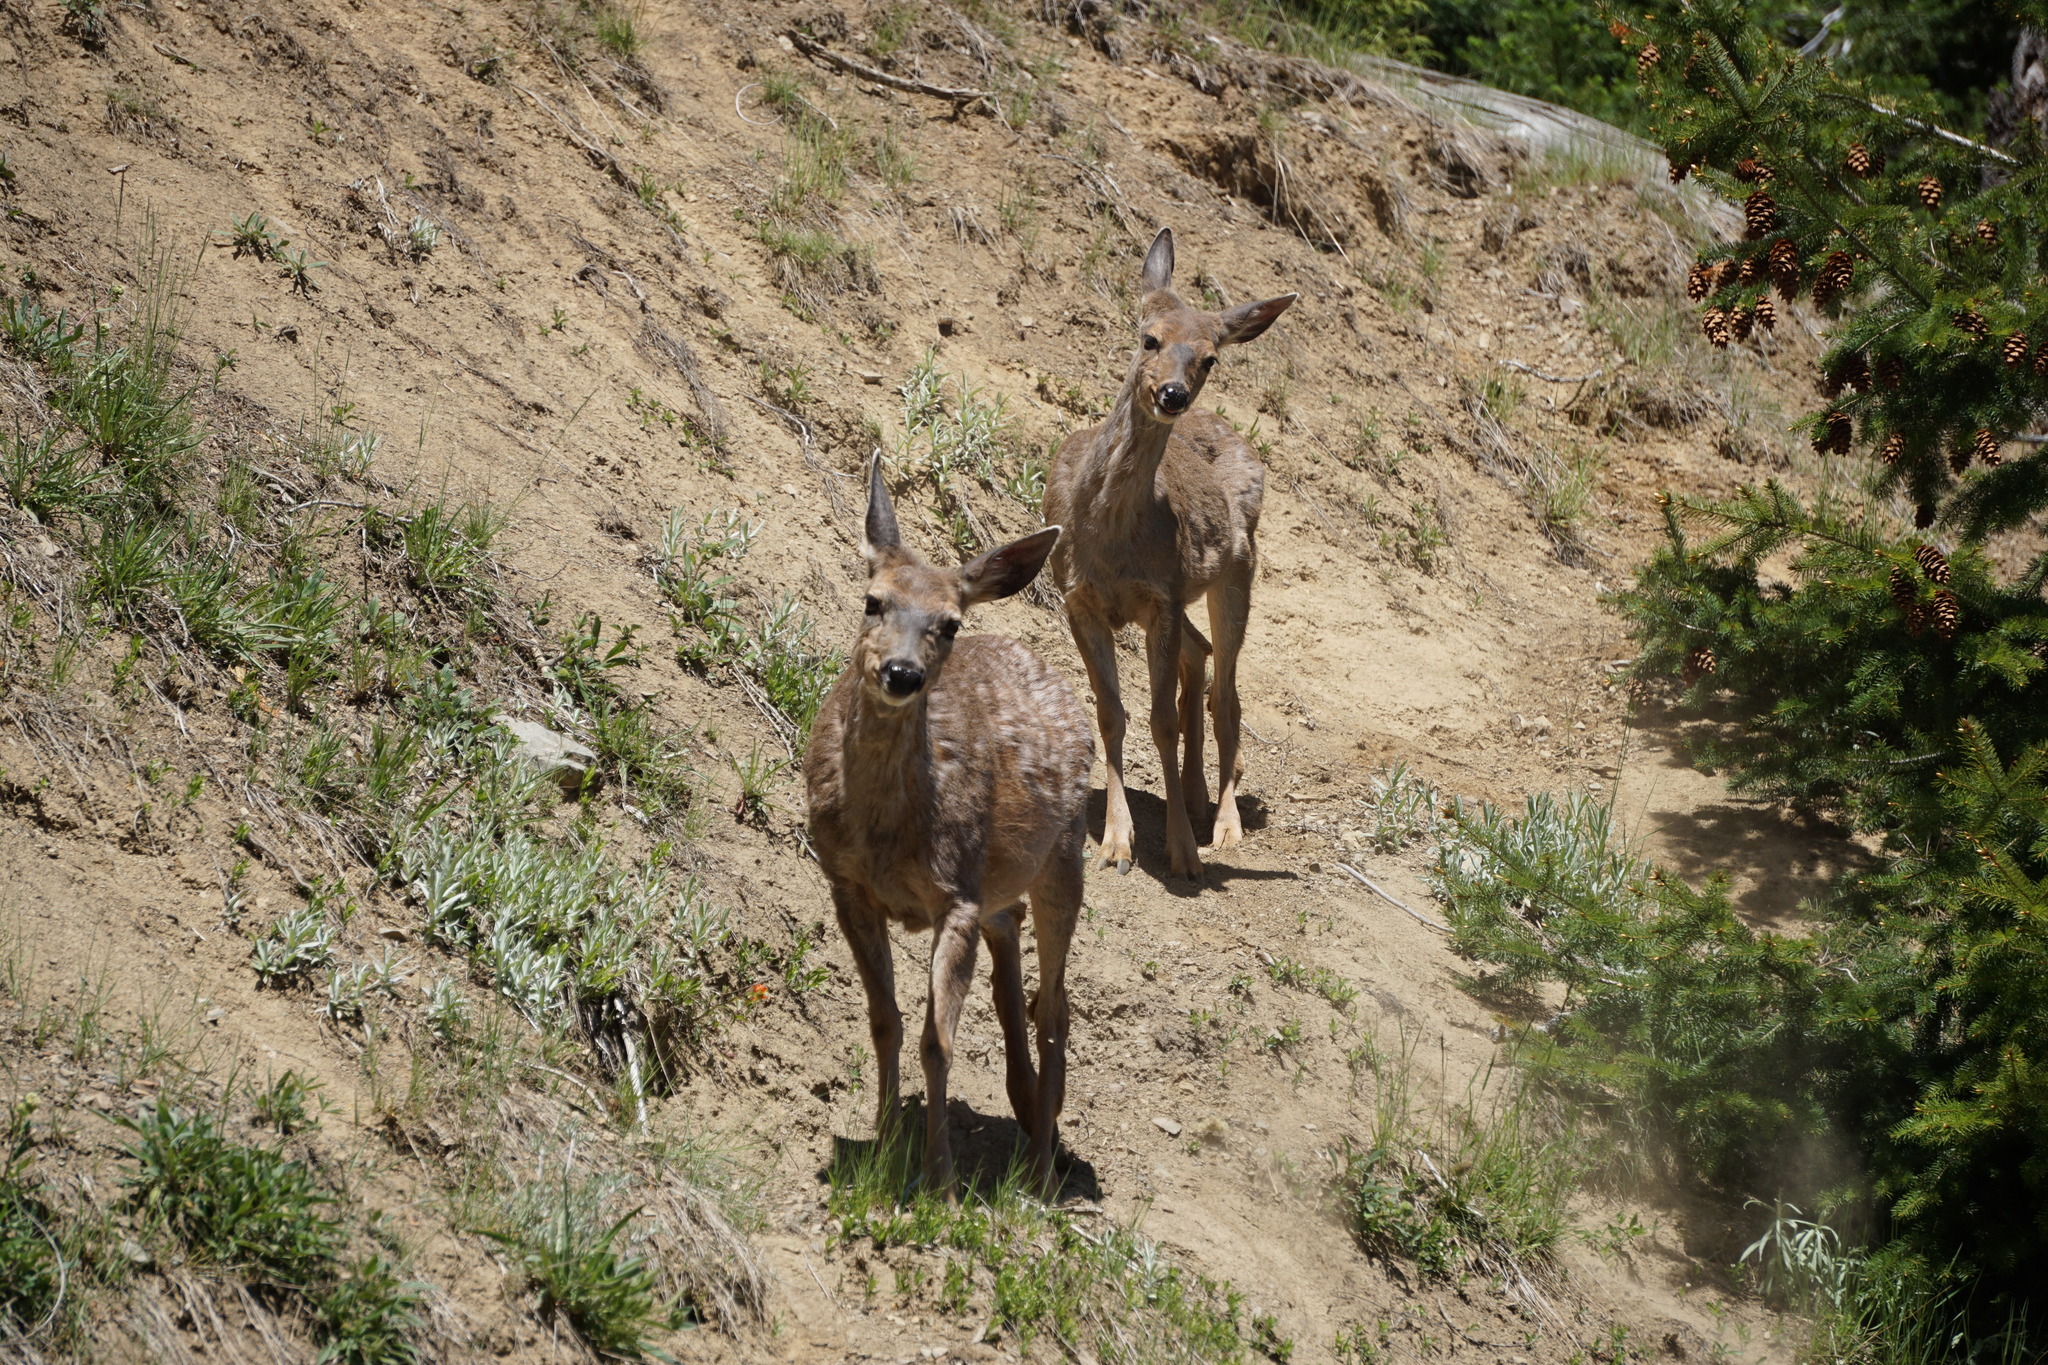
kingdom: Animalia
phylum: Chordata
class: Mammalia
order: Artiodactyla
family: Cervidae
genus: Odocoileus
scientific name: Odocoileus hemionus
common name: Mule deer
